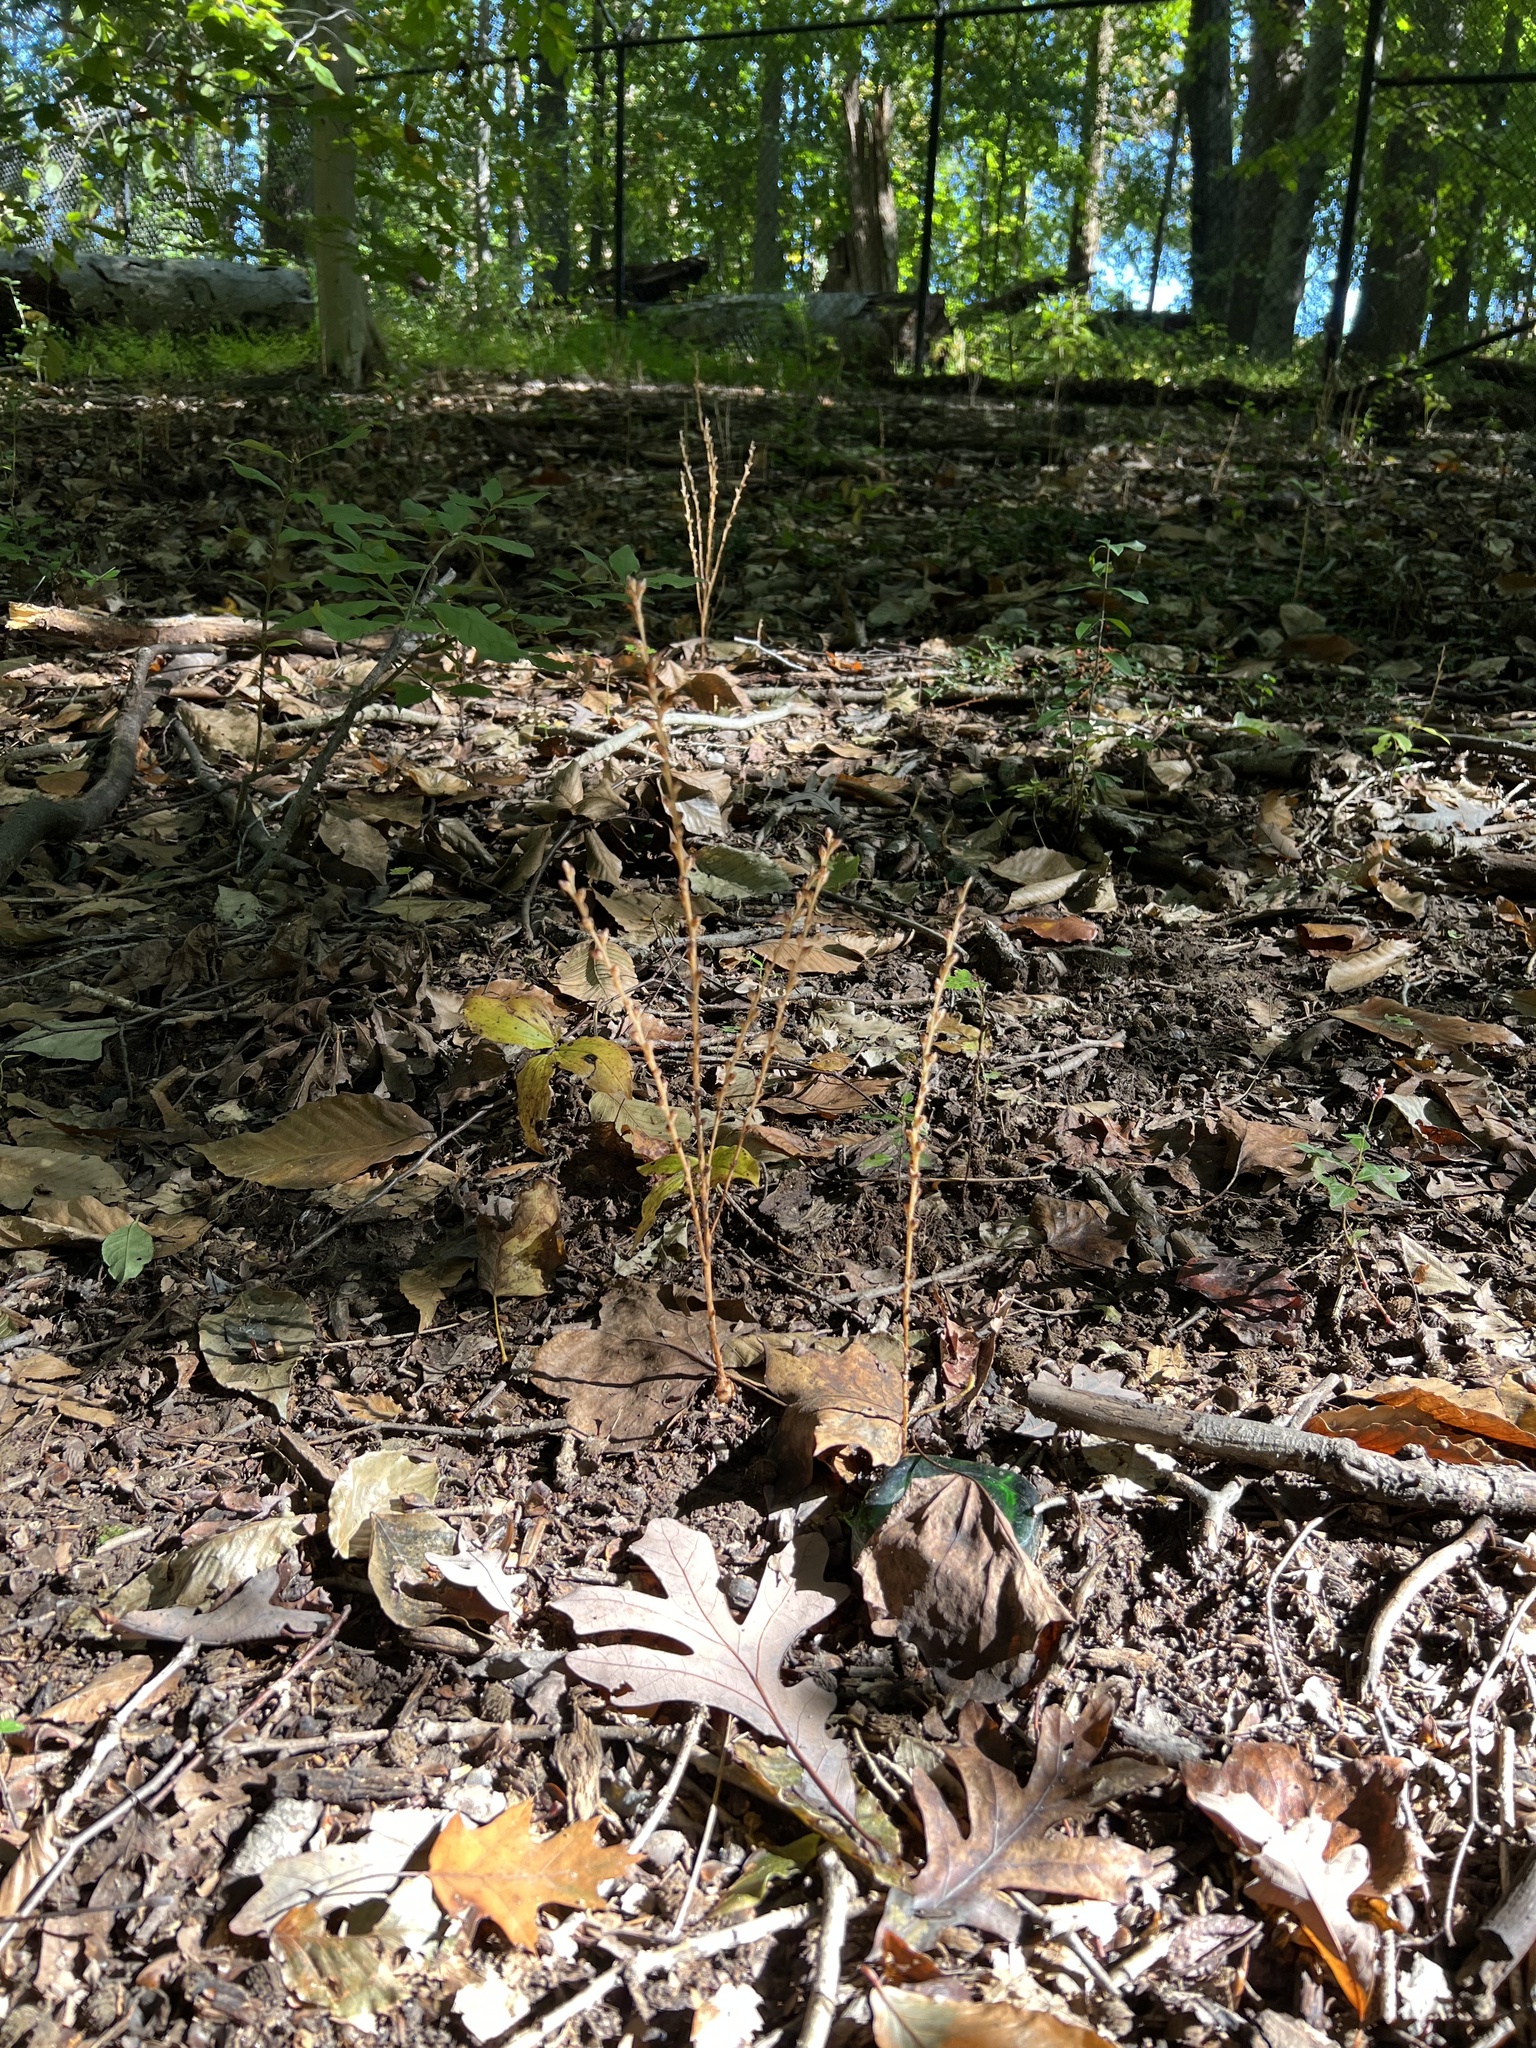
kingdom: Plantae
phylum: Tracheophyta
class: Magnoliopsida
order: Lamiales
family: Orobanchaceae
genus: Epifagus
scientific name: Epifagus virginiana
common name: Beechdrops
